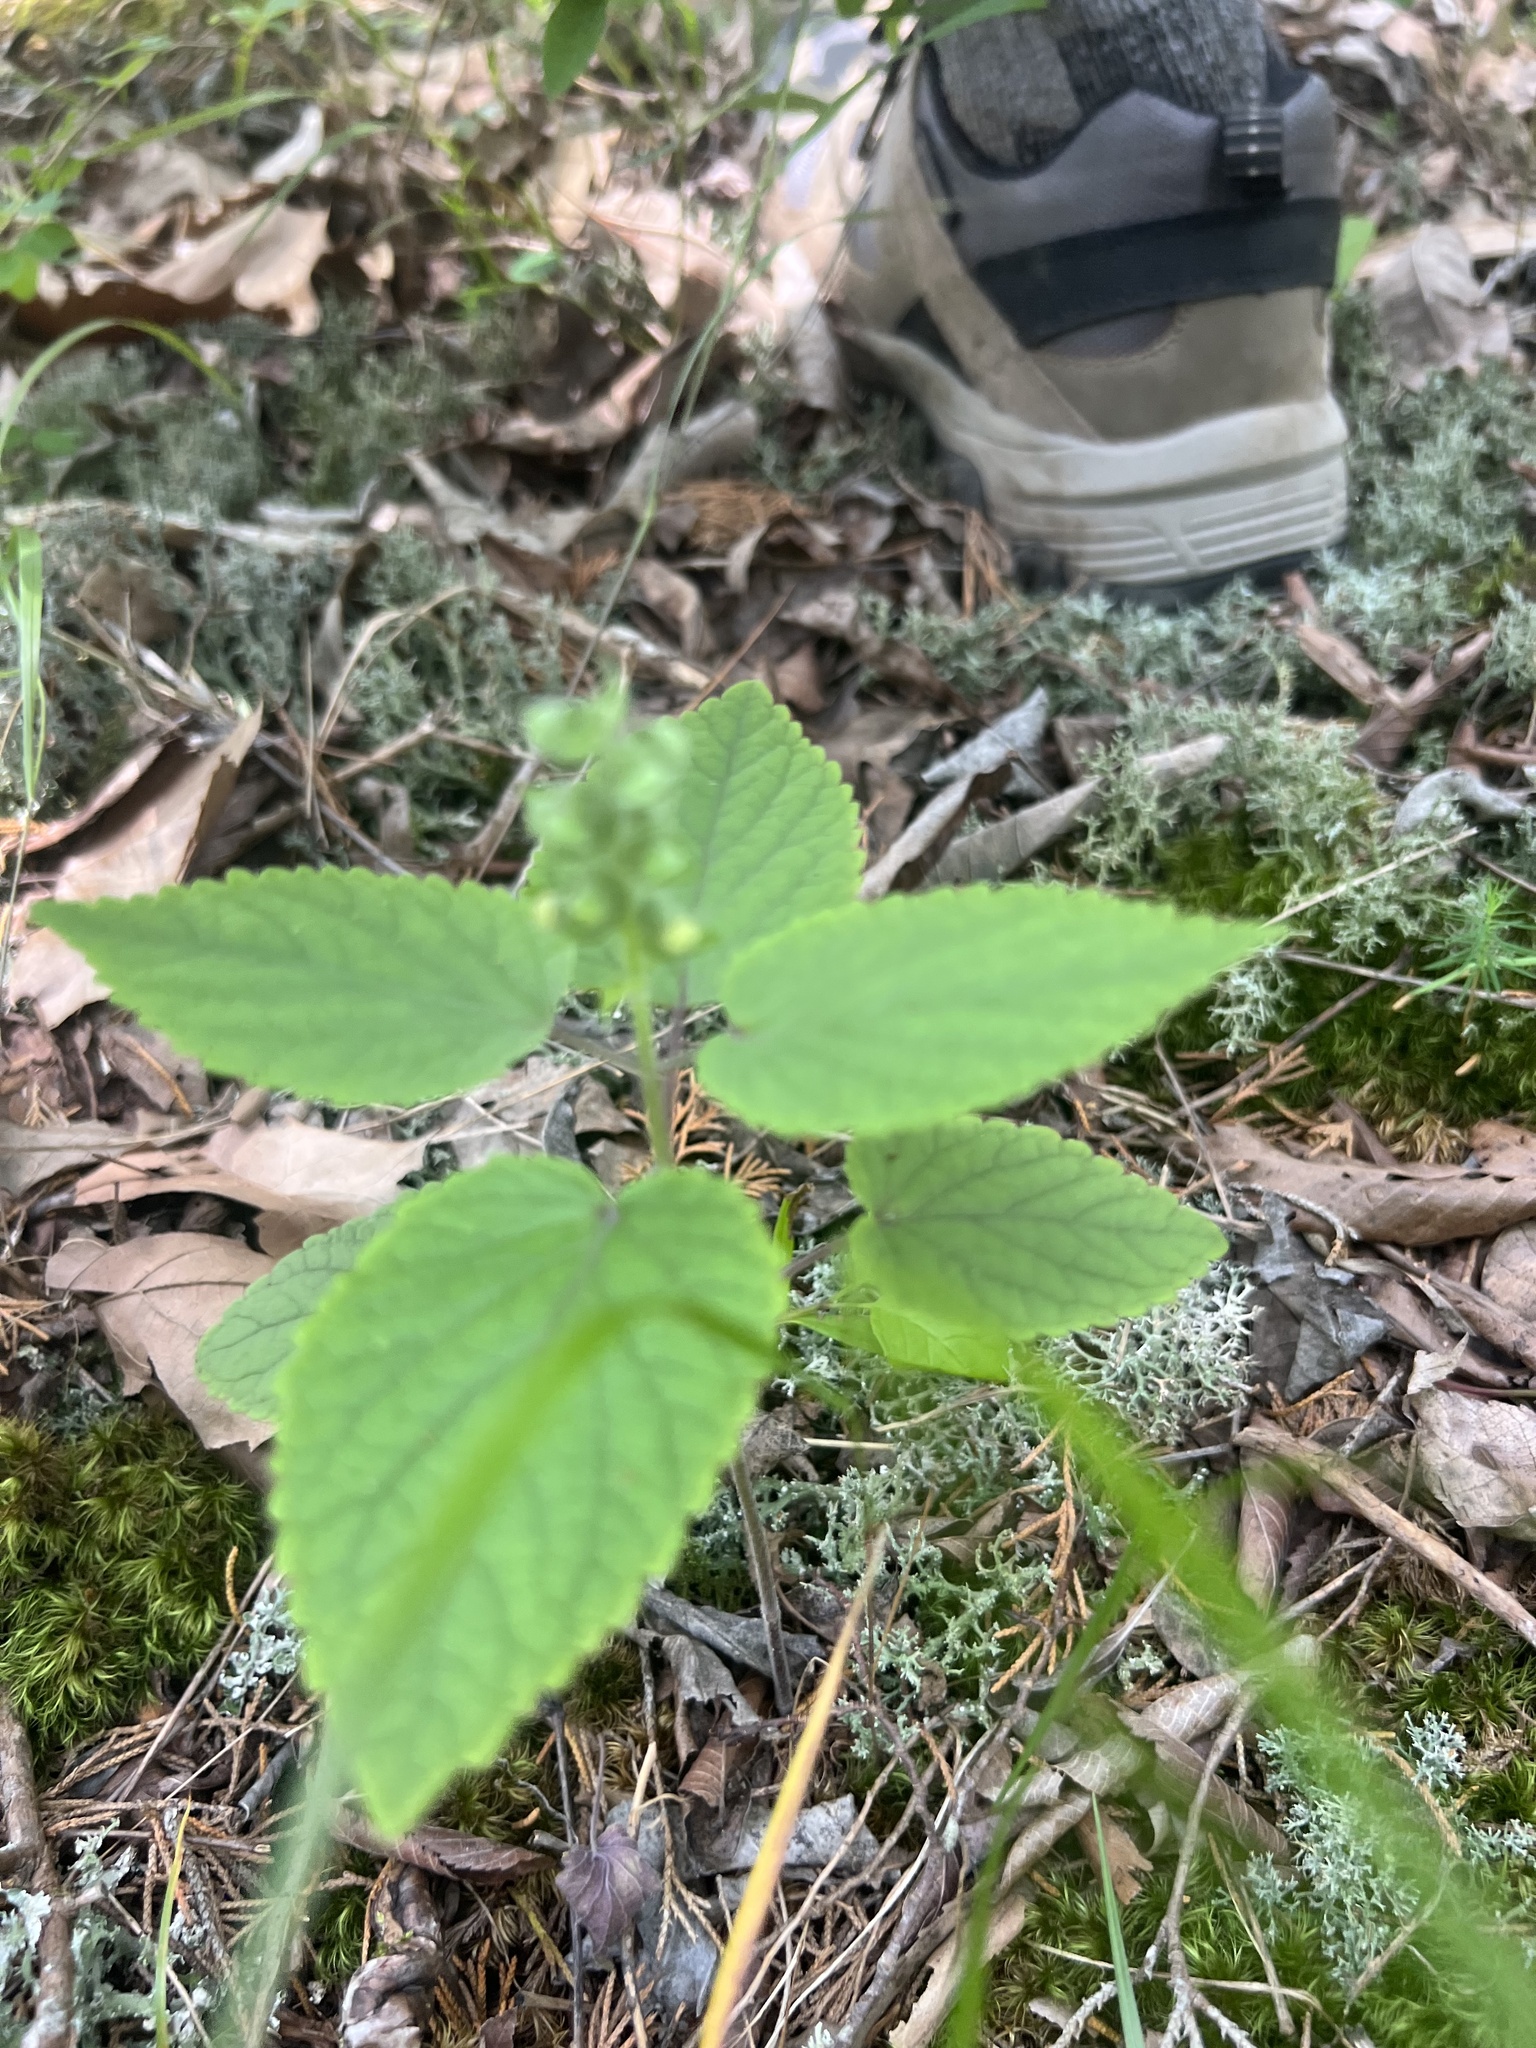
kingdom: Plantae
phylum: Tracheophyta
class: Magnoliopsida
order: Lamiales
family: Lamiaceae
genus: Scutellaria
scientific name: Scutellaria ovata
